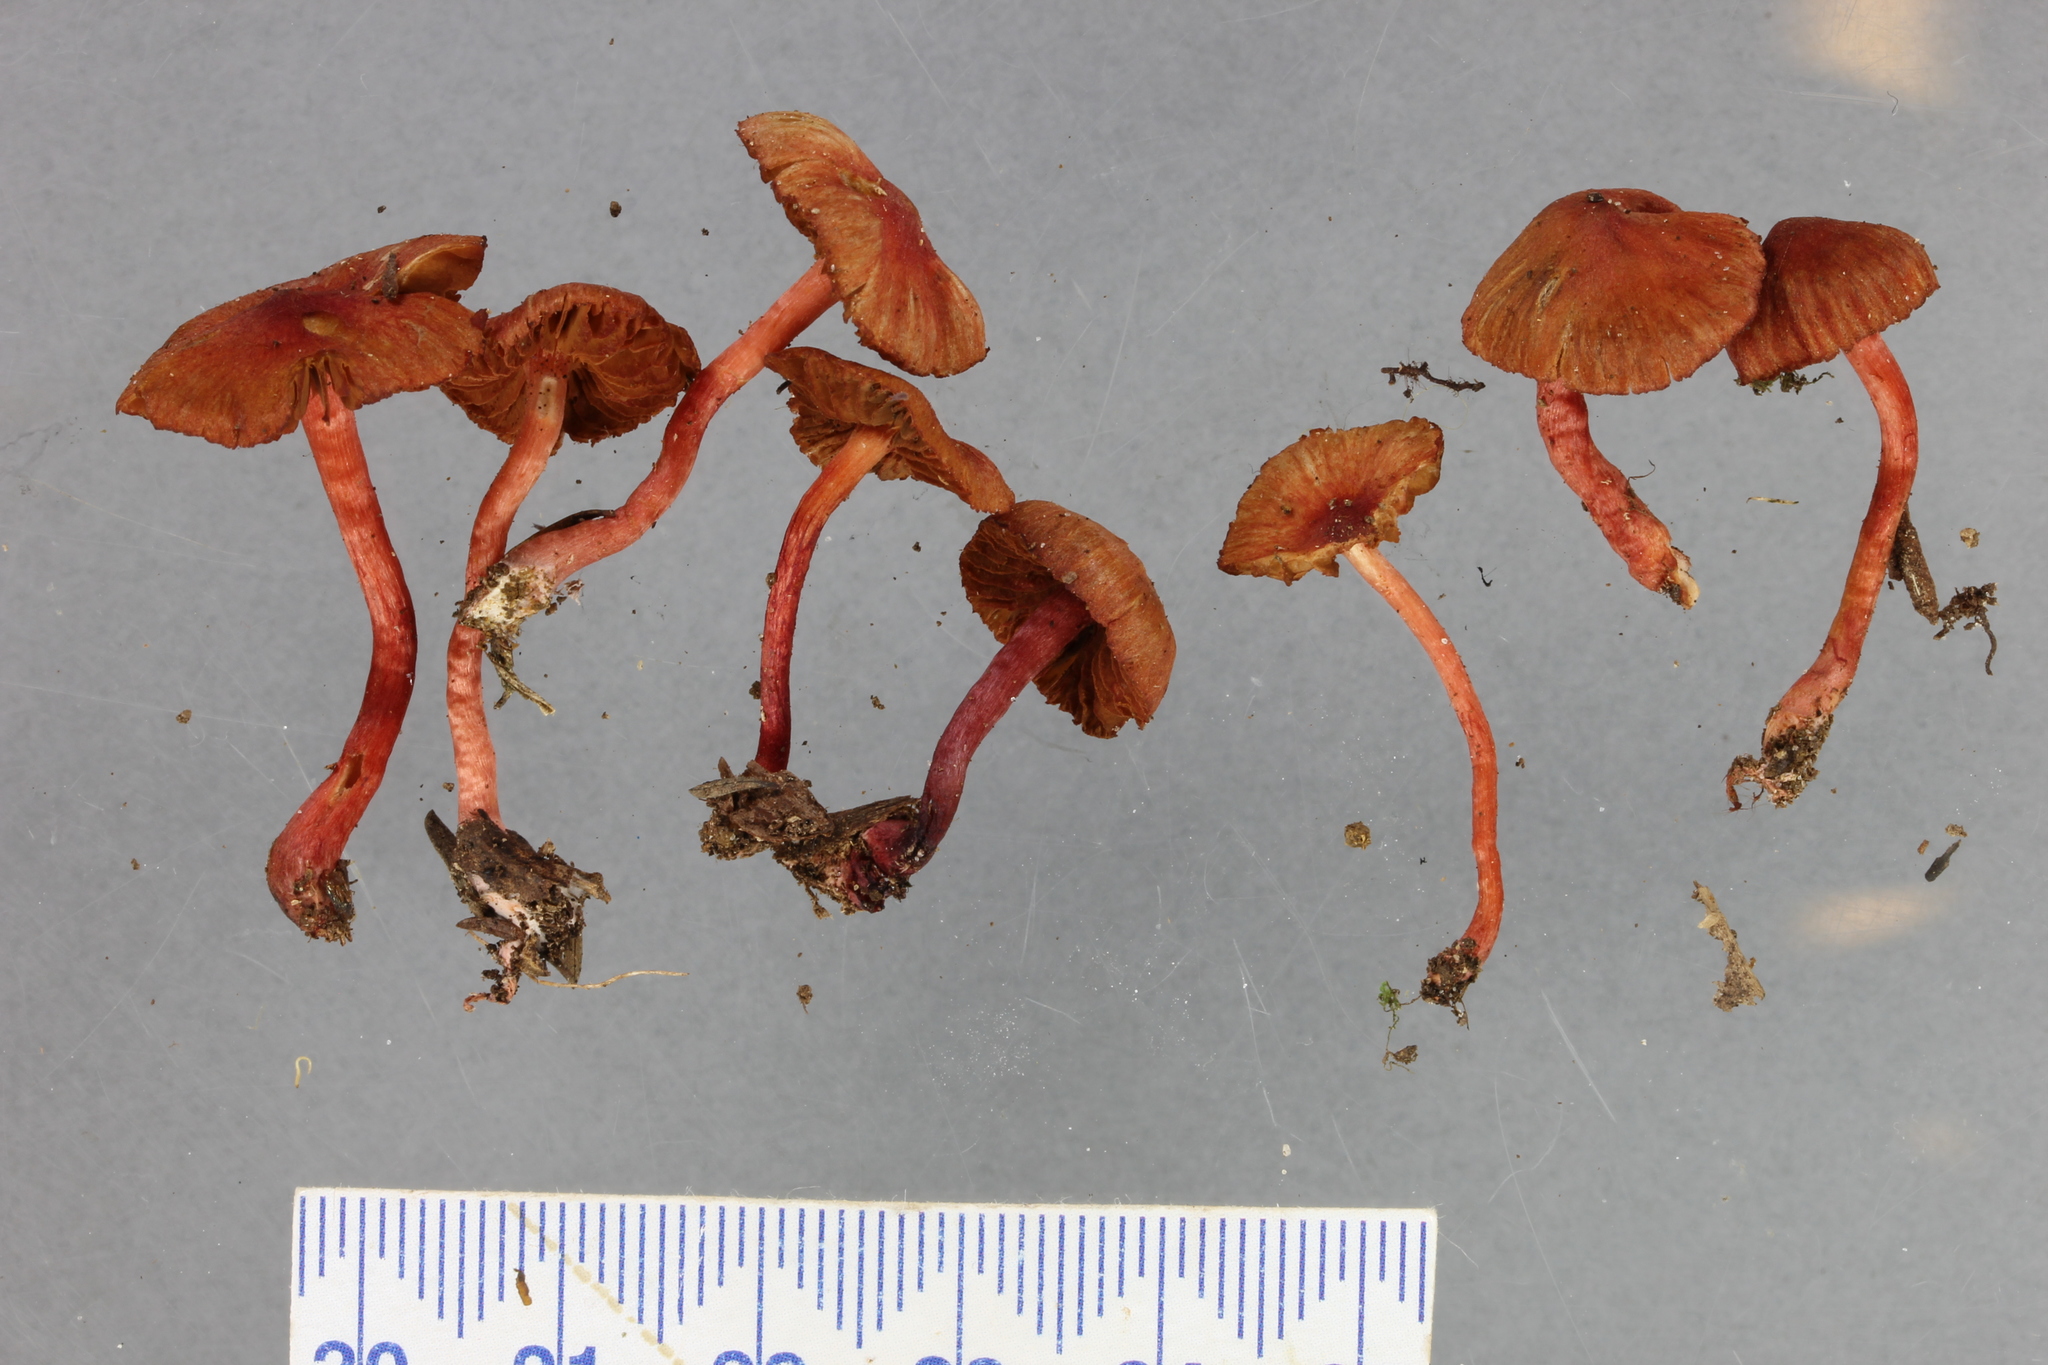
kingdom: Fungi
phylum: Basidiomycota
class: Agaricomycetes
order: Agaricales
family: Cortinariaceae
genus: Cortinarius
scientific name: Cortinarius cruentoides
